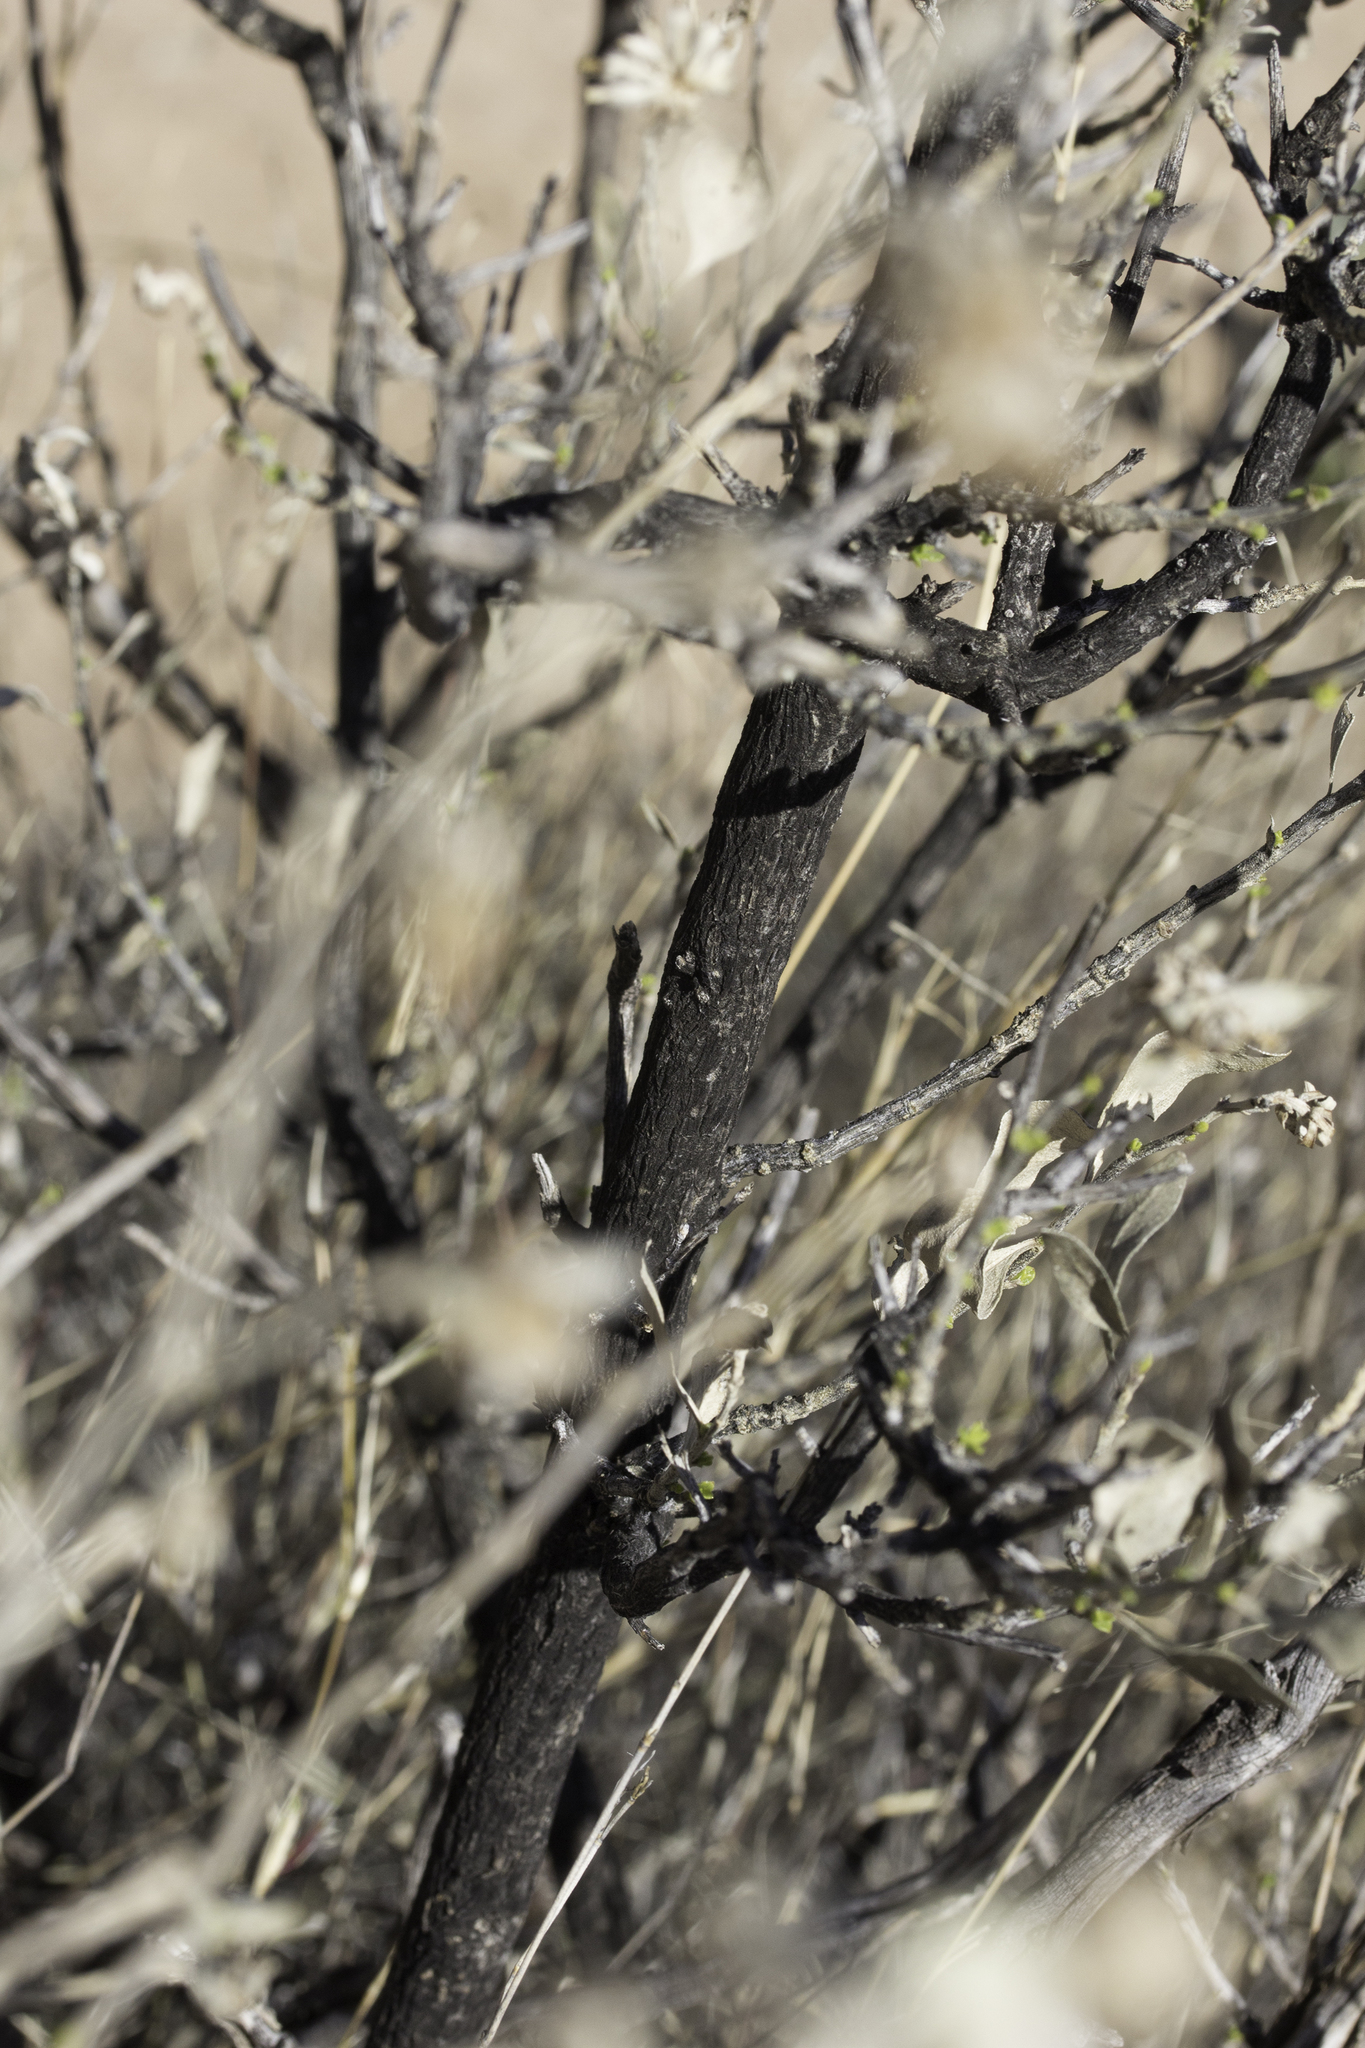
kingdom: Plantae
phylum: Tracheophyta
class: Magnoliopsida
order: Asterales
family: Asteraceae
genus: Flourensia
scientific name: Flourensia cernua
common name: Varnishbush
